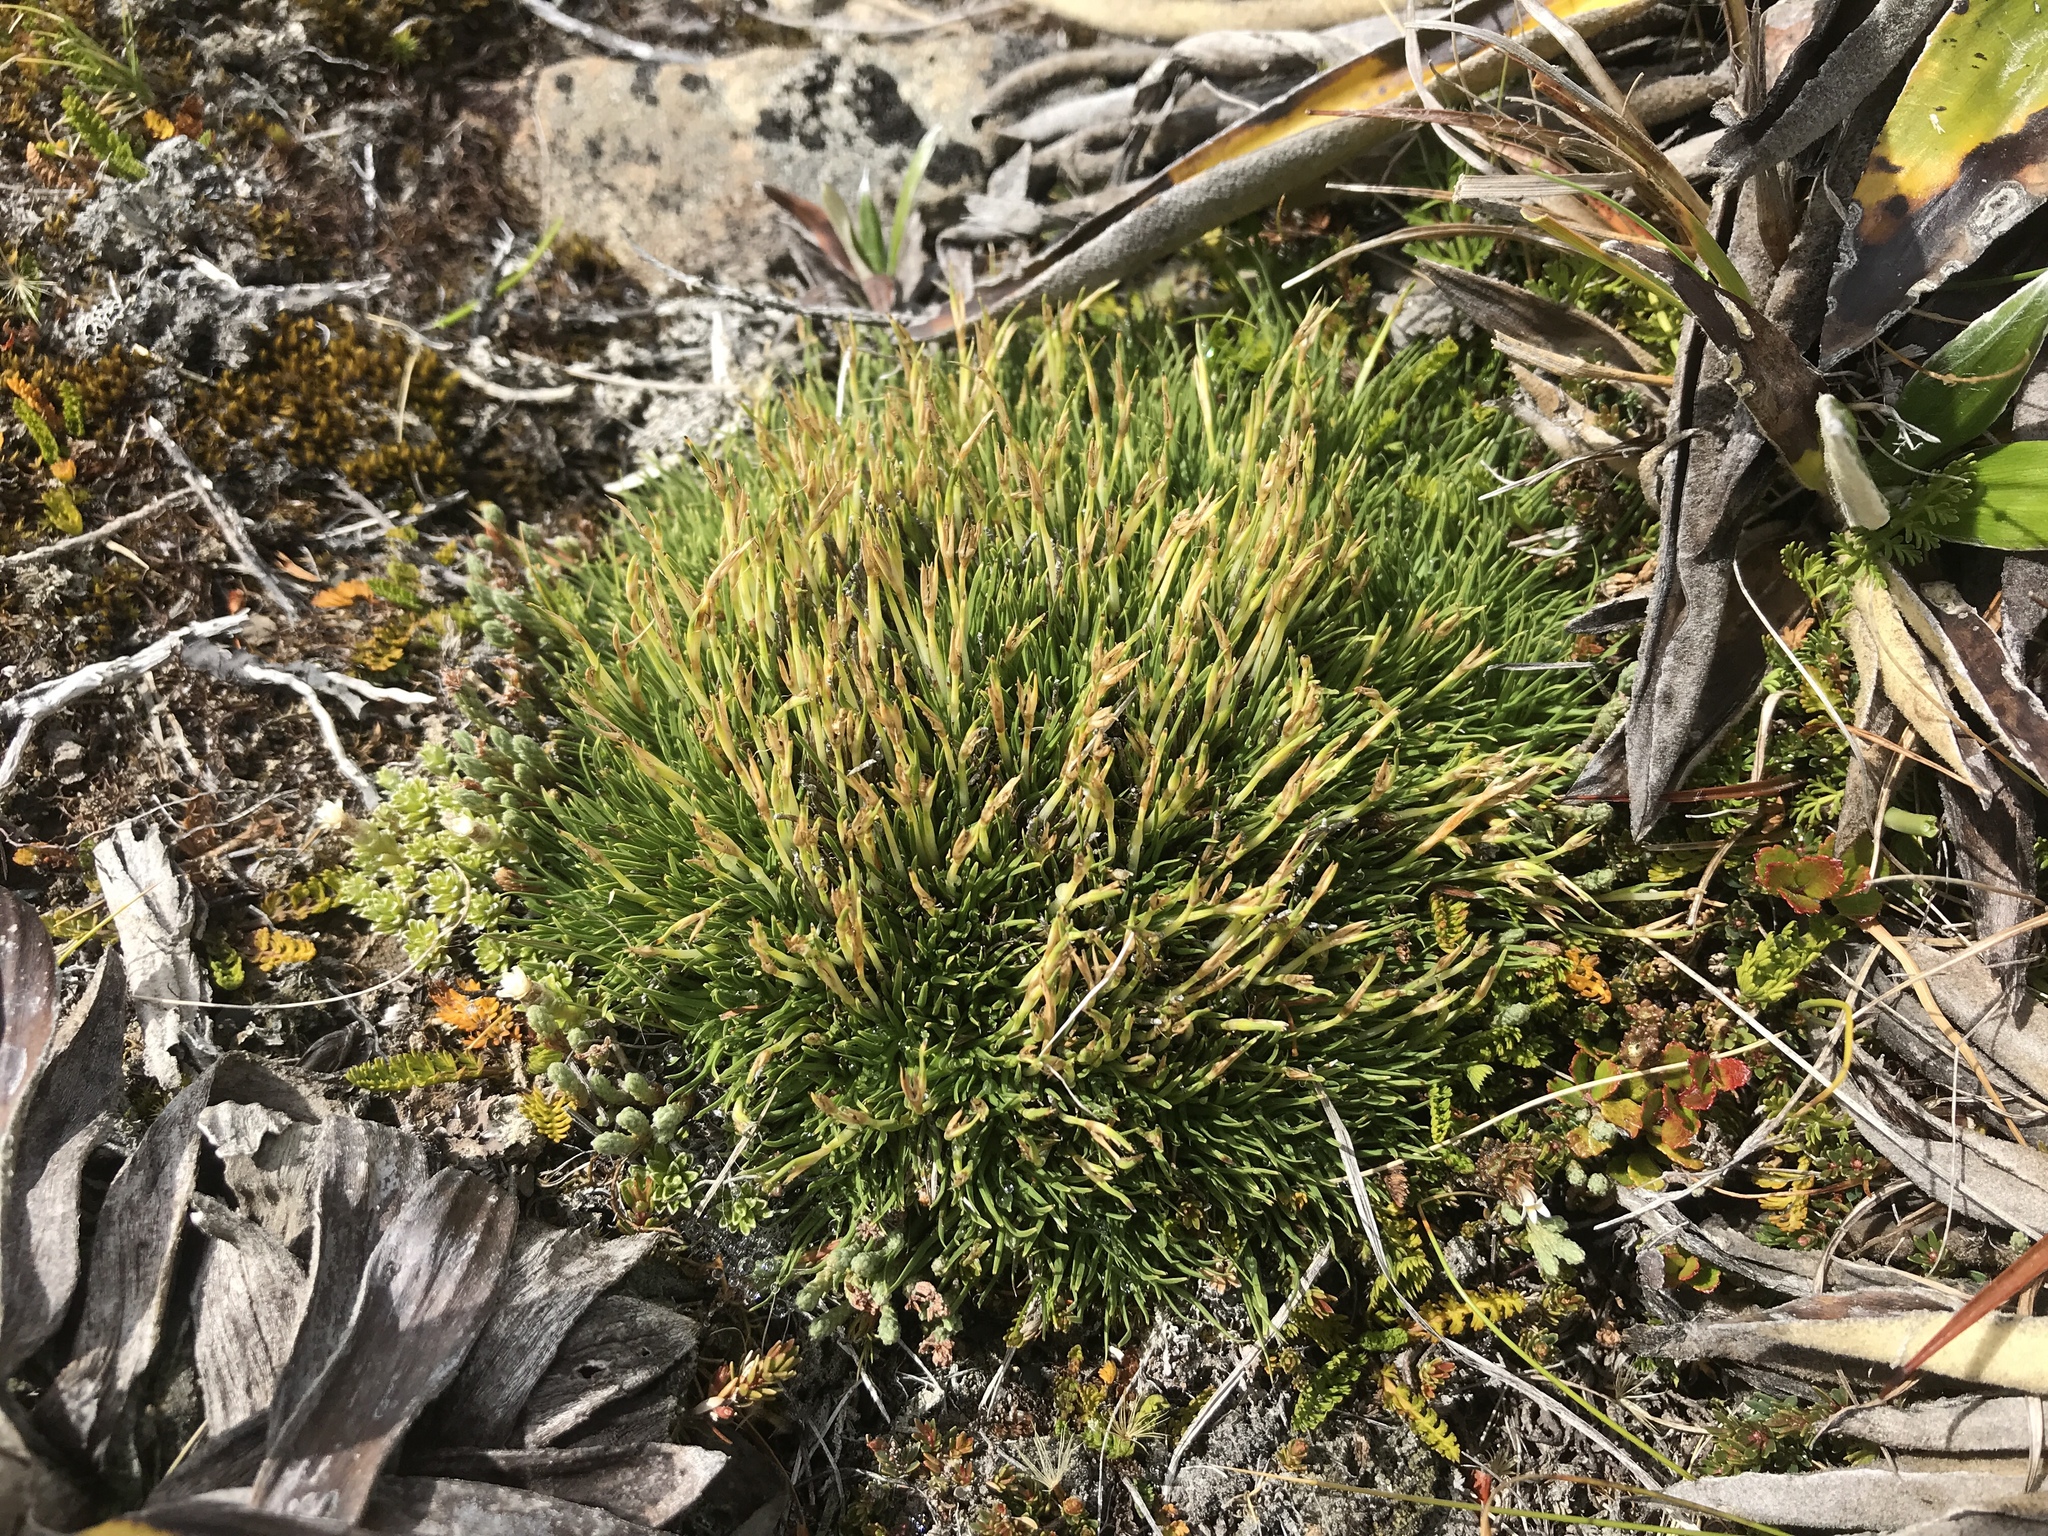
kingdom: Plantae
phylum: Tracheophyta
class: Liliopsida
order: Poales
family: Cyperaceae
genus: Oreobolus
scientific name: Oreobolus pectinatus
